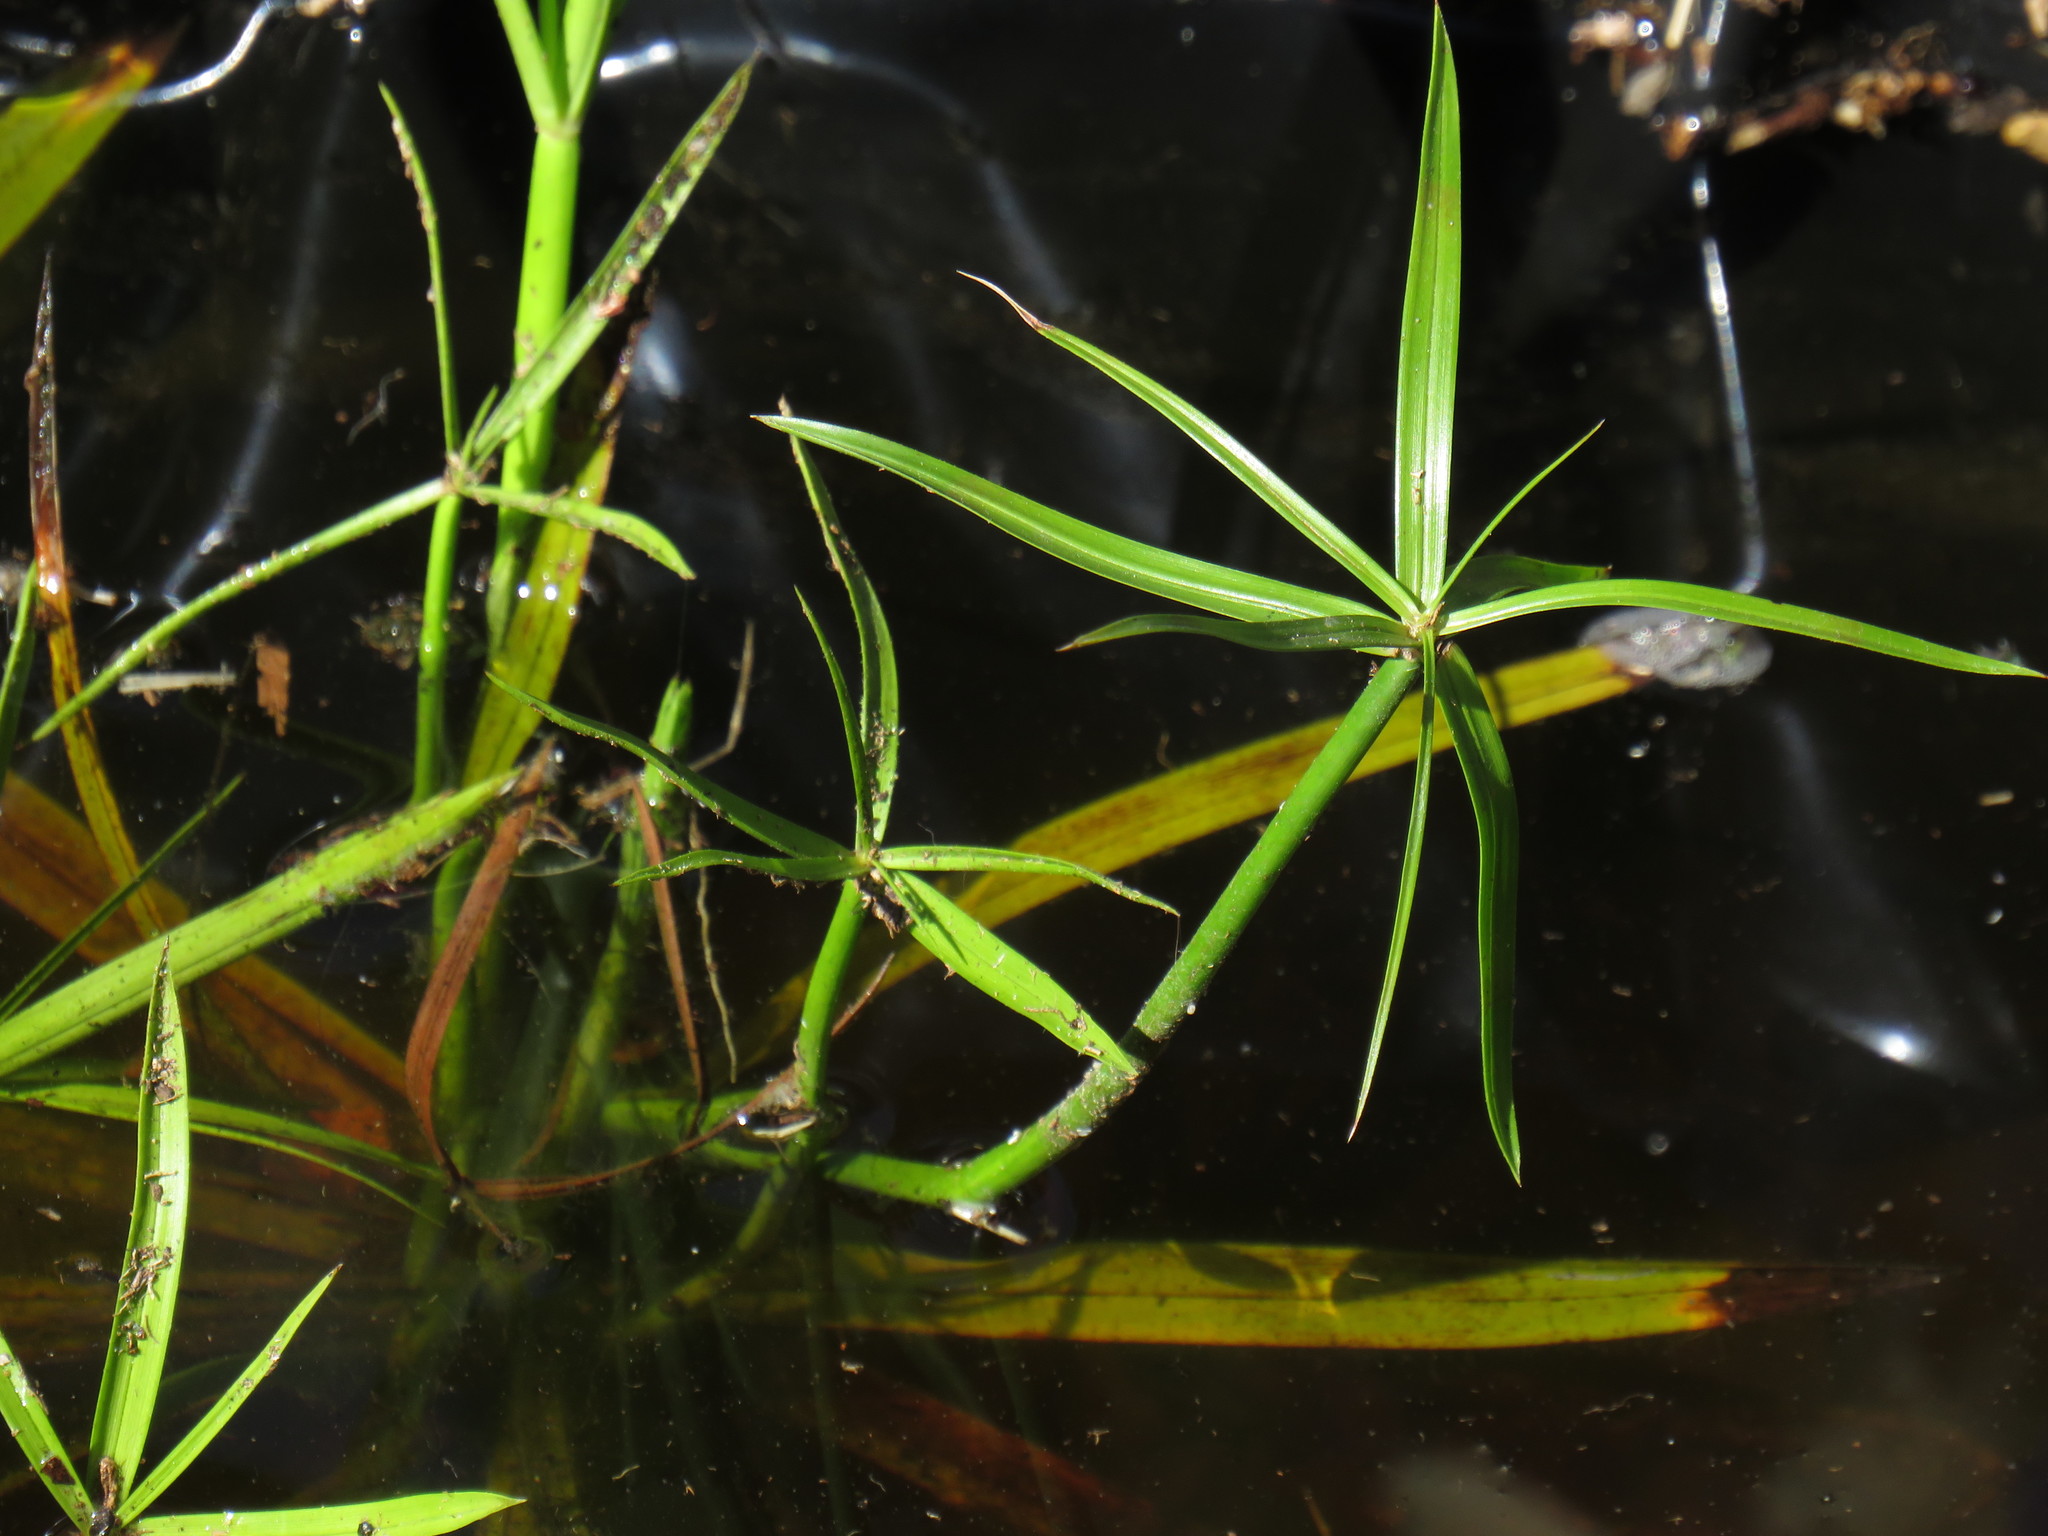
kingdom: Plantae
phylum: Tracheophyta
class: Liliopsida
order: Poales
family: Cyperaceae
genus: Cyperus
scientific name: Cyperus textilis
